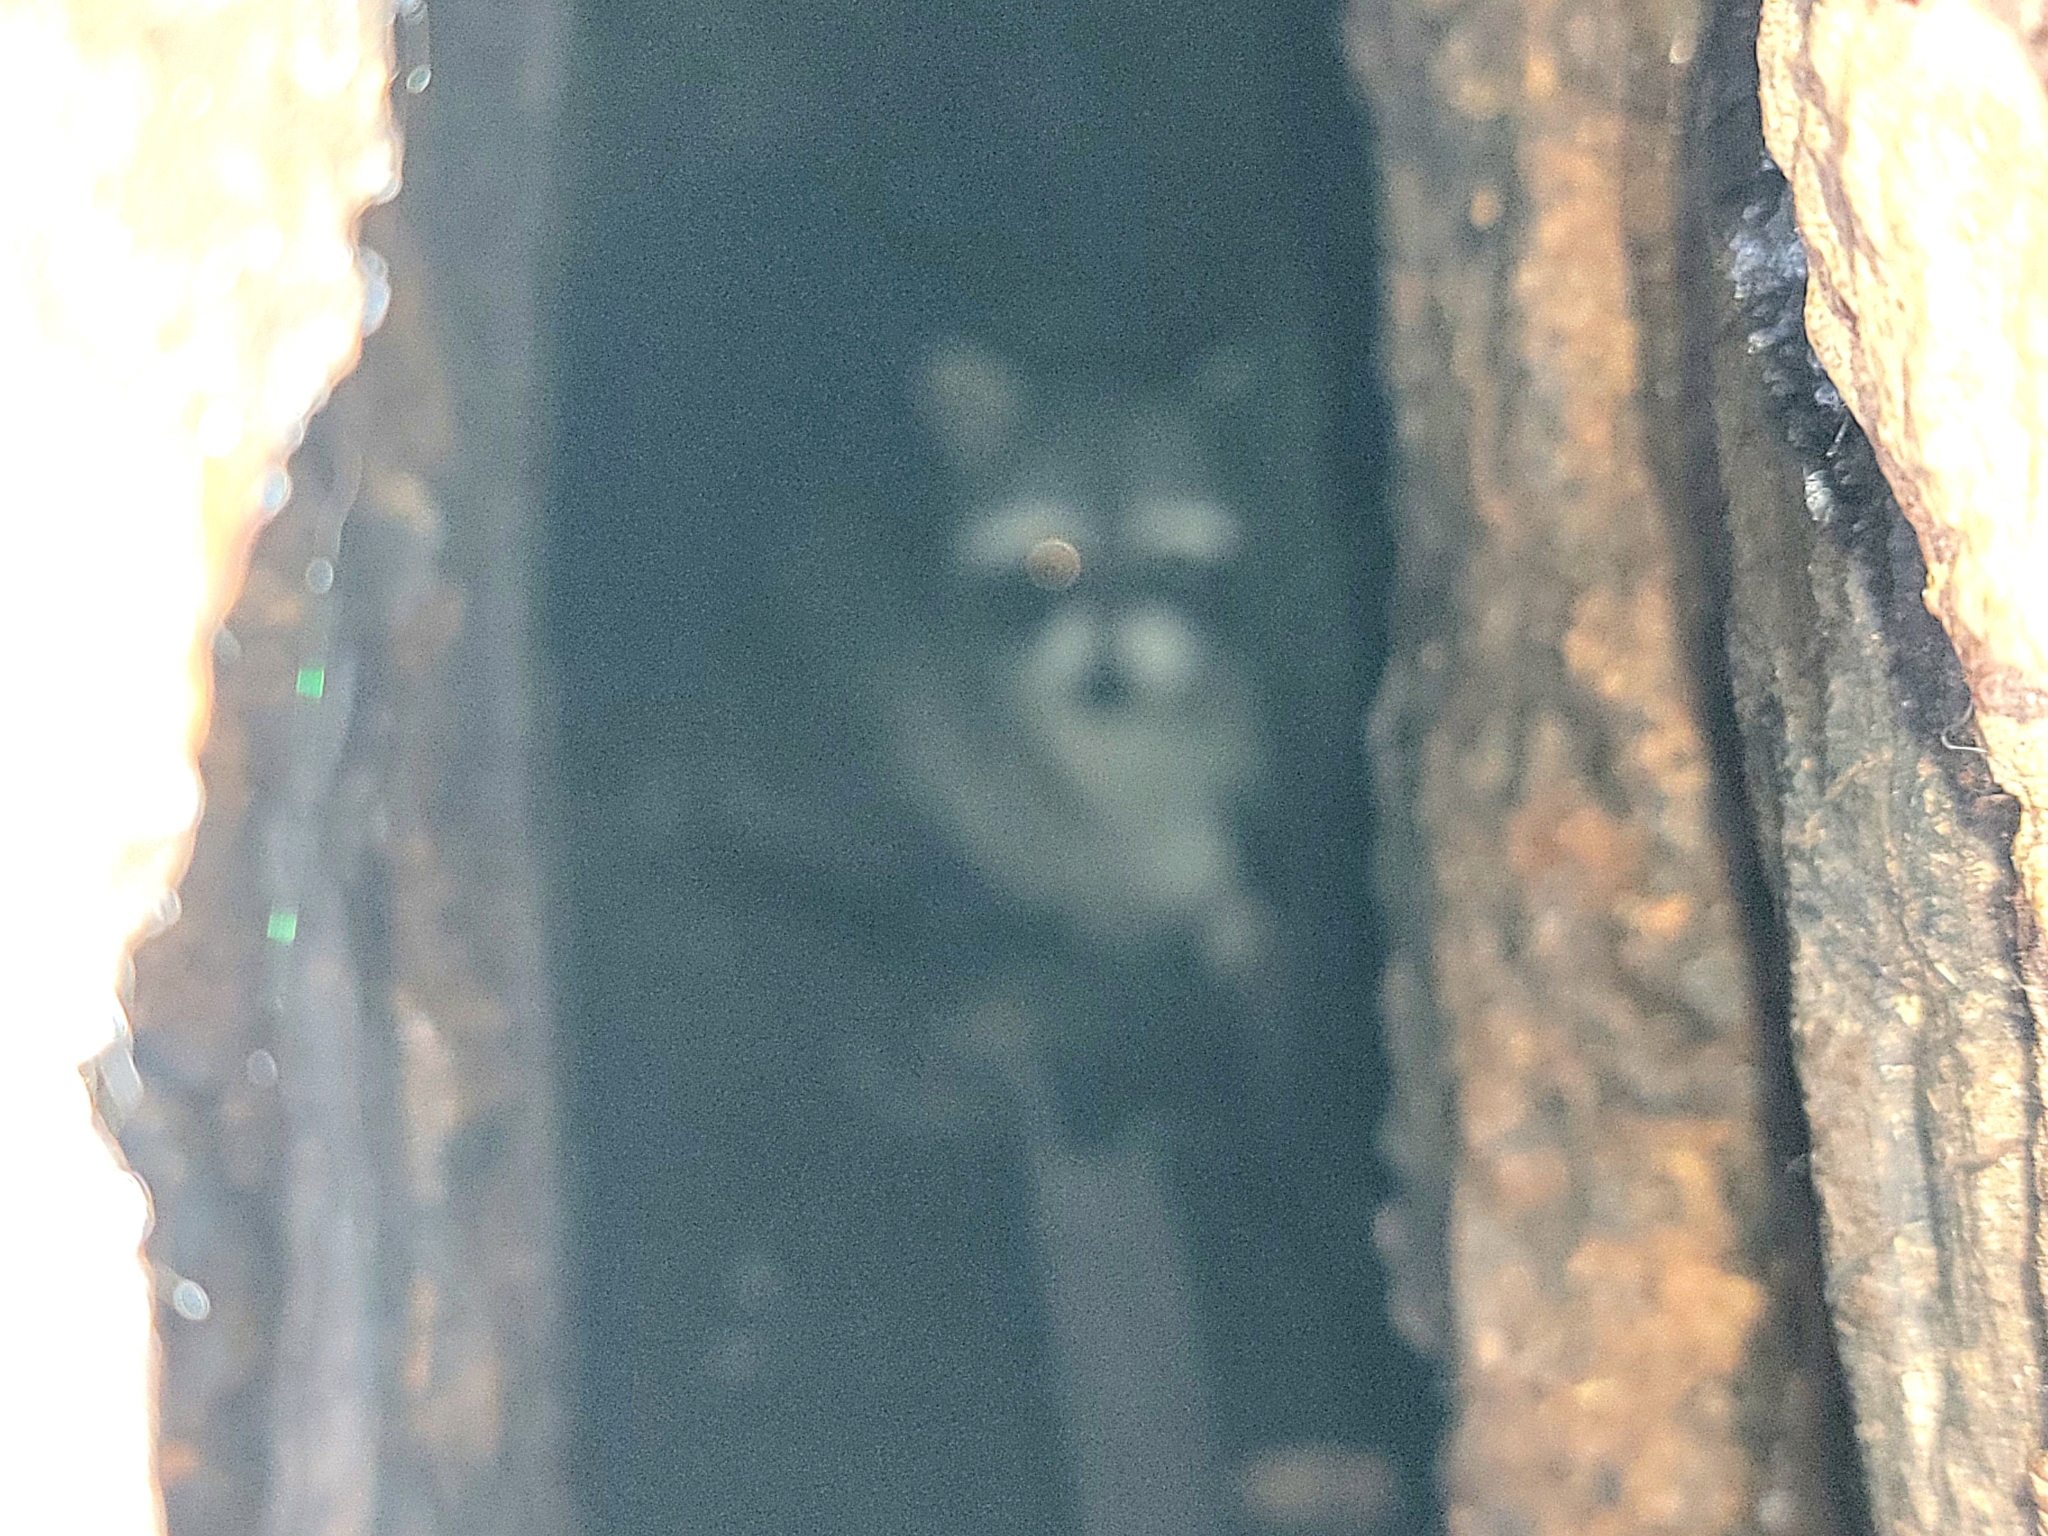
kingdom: Animalia
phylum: Chordata
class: Mammalia
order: Carnivora
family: Procyonidae
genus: Procyon
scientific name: Procyon lotor
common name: Raccoon
